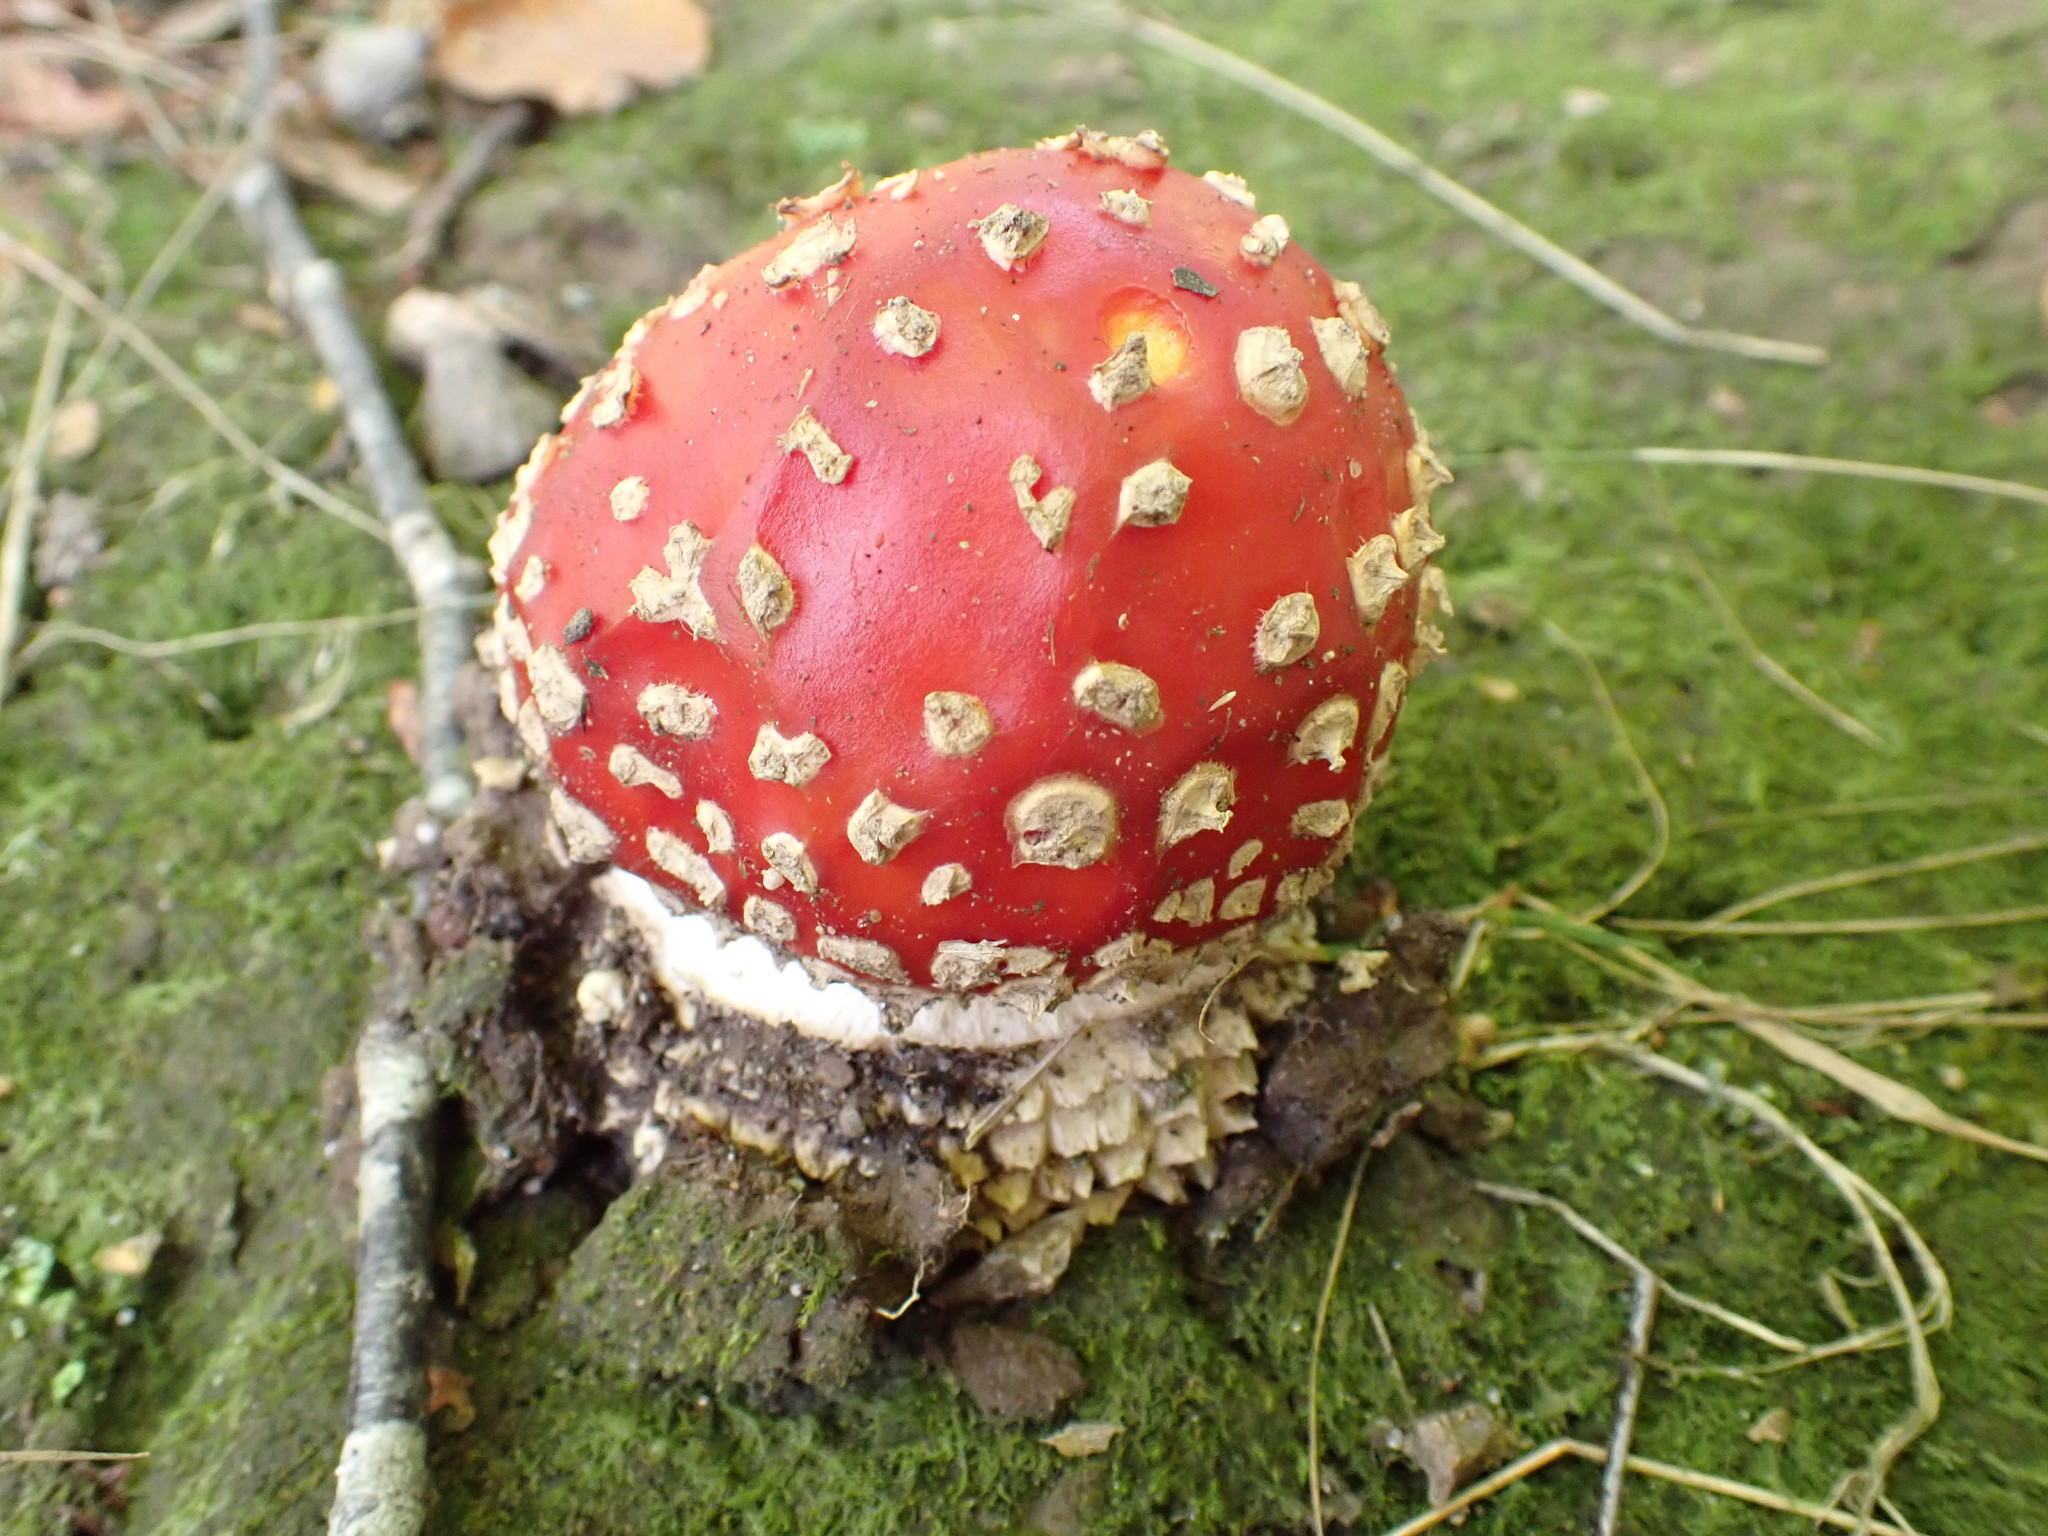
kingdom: Fungi
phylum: Basidiomycota
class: Agaricomycetes
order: Agaricales
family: Amanitaceae
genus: Amanita
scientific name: Amanita muscaria
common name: Fly agaric
